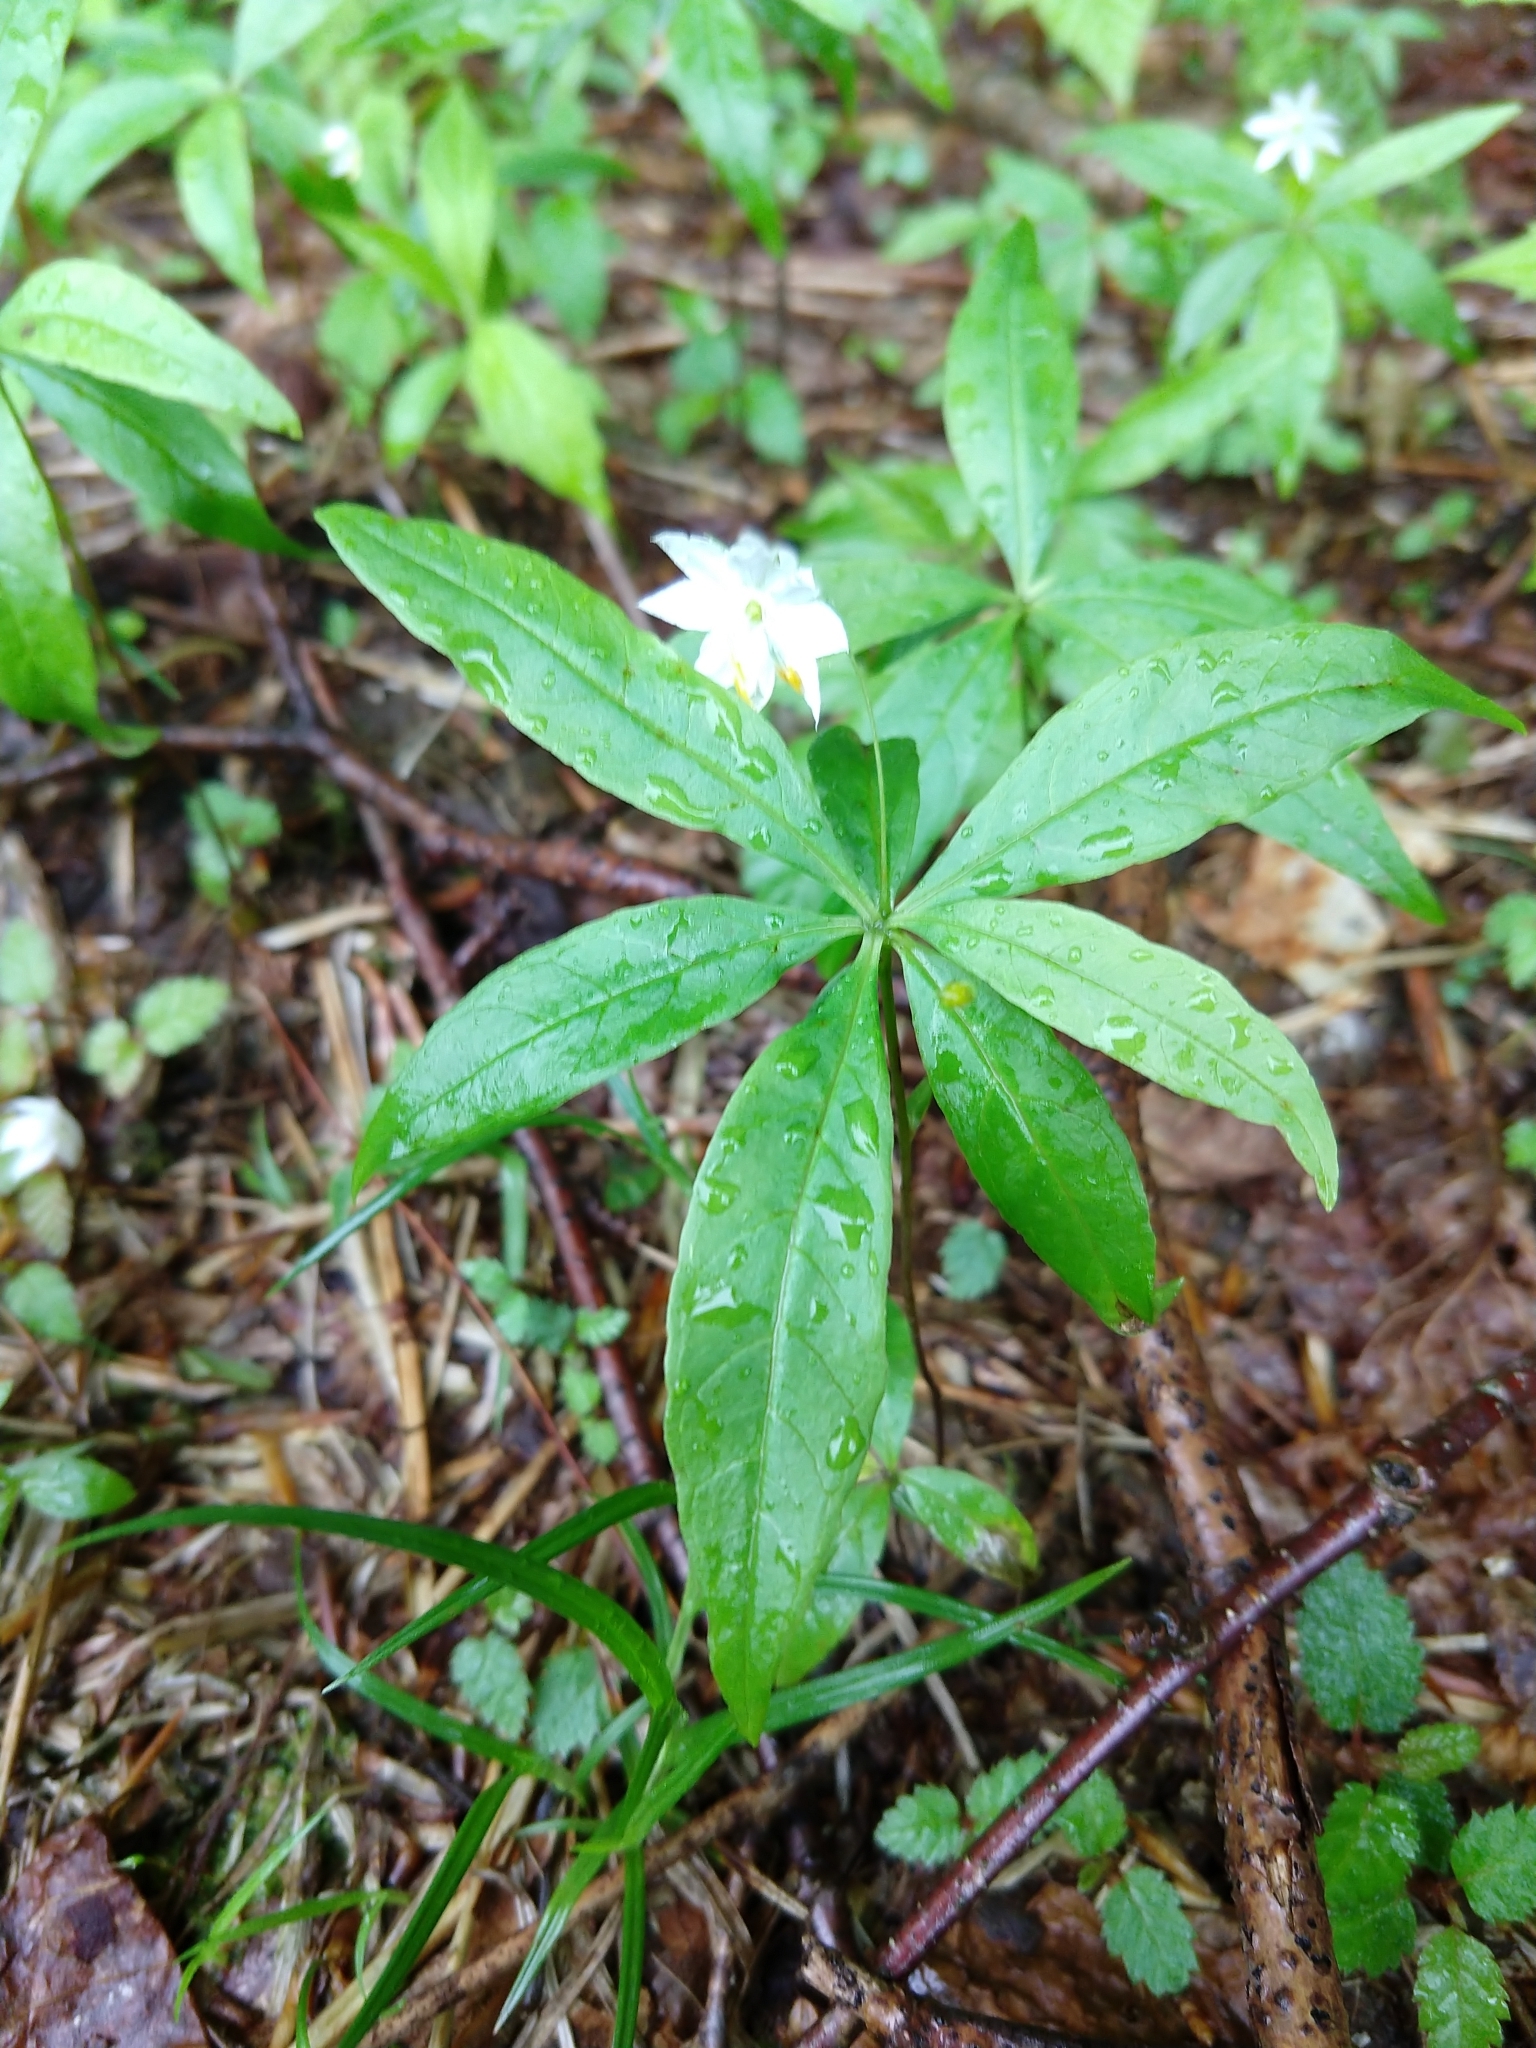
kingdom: Plantae
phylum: Tracheophyta
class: Magnoliopsida
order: Ericales
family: Primulaceae
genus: Lysimachia
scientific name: Lysimachia borealis
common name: American starflower
